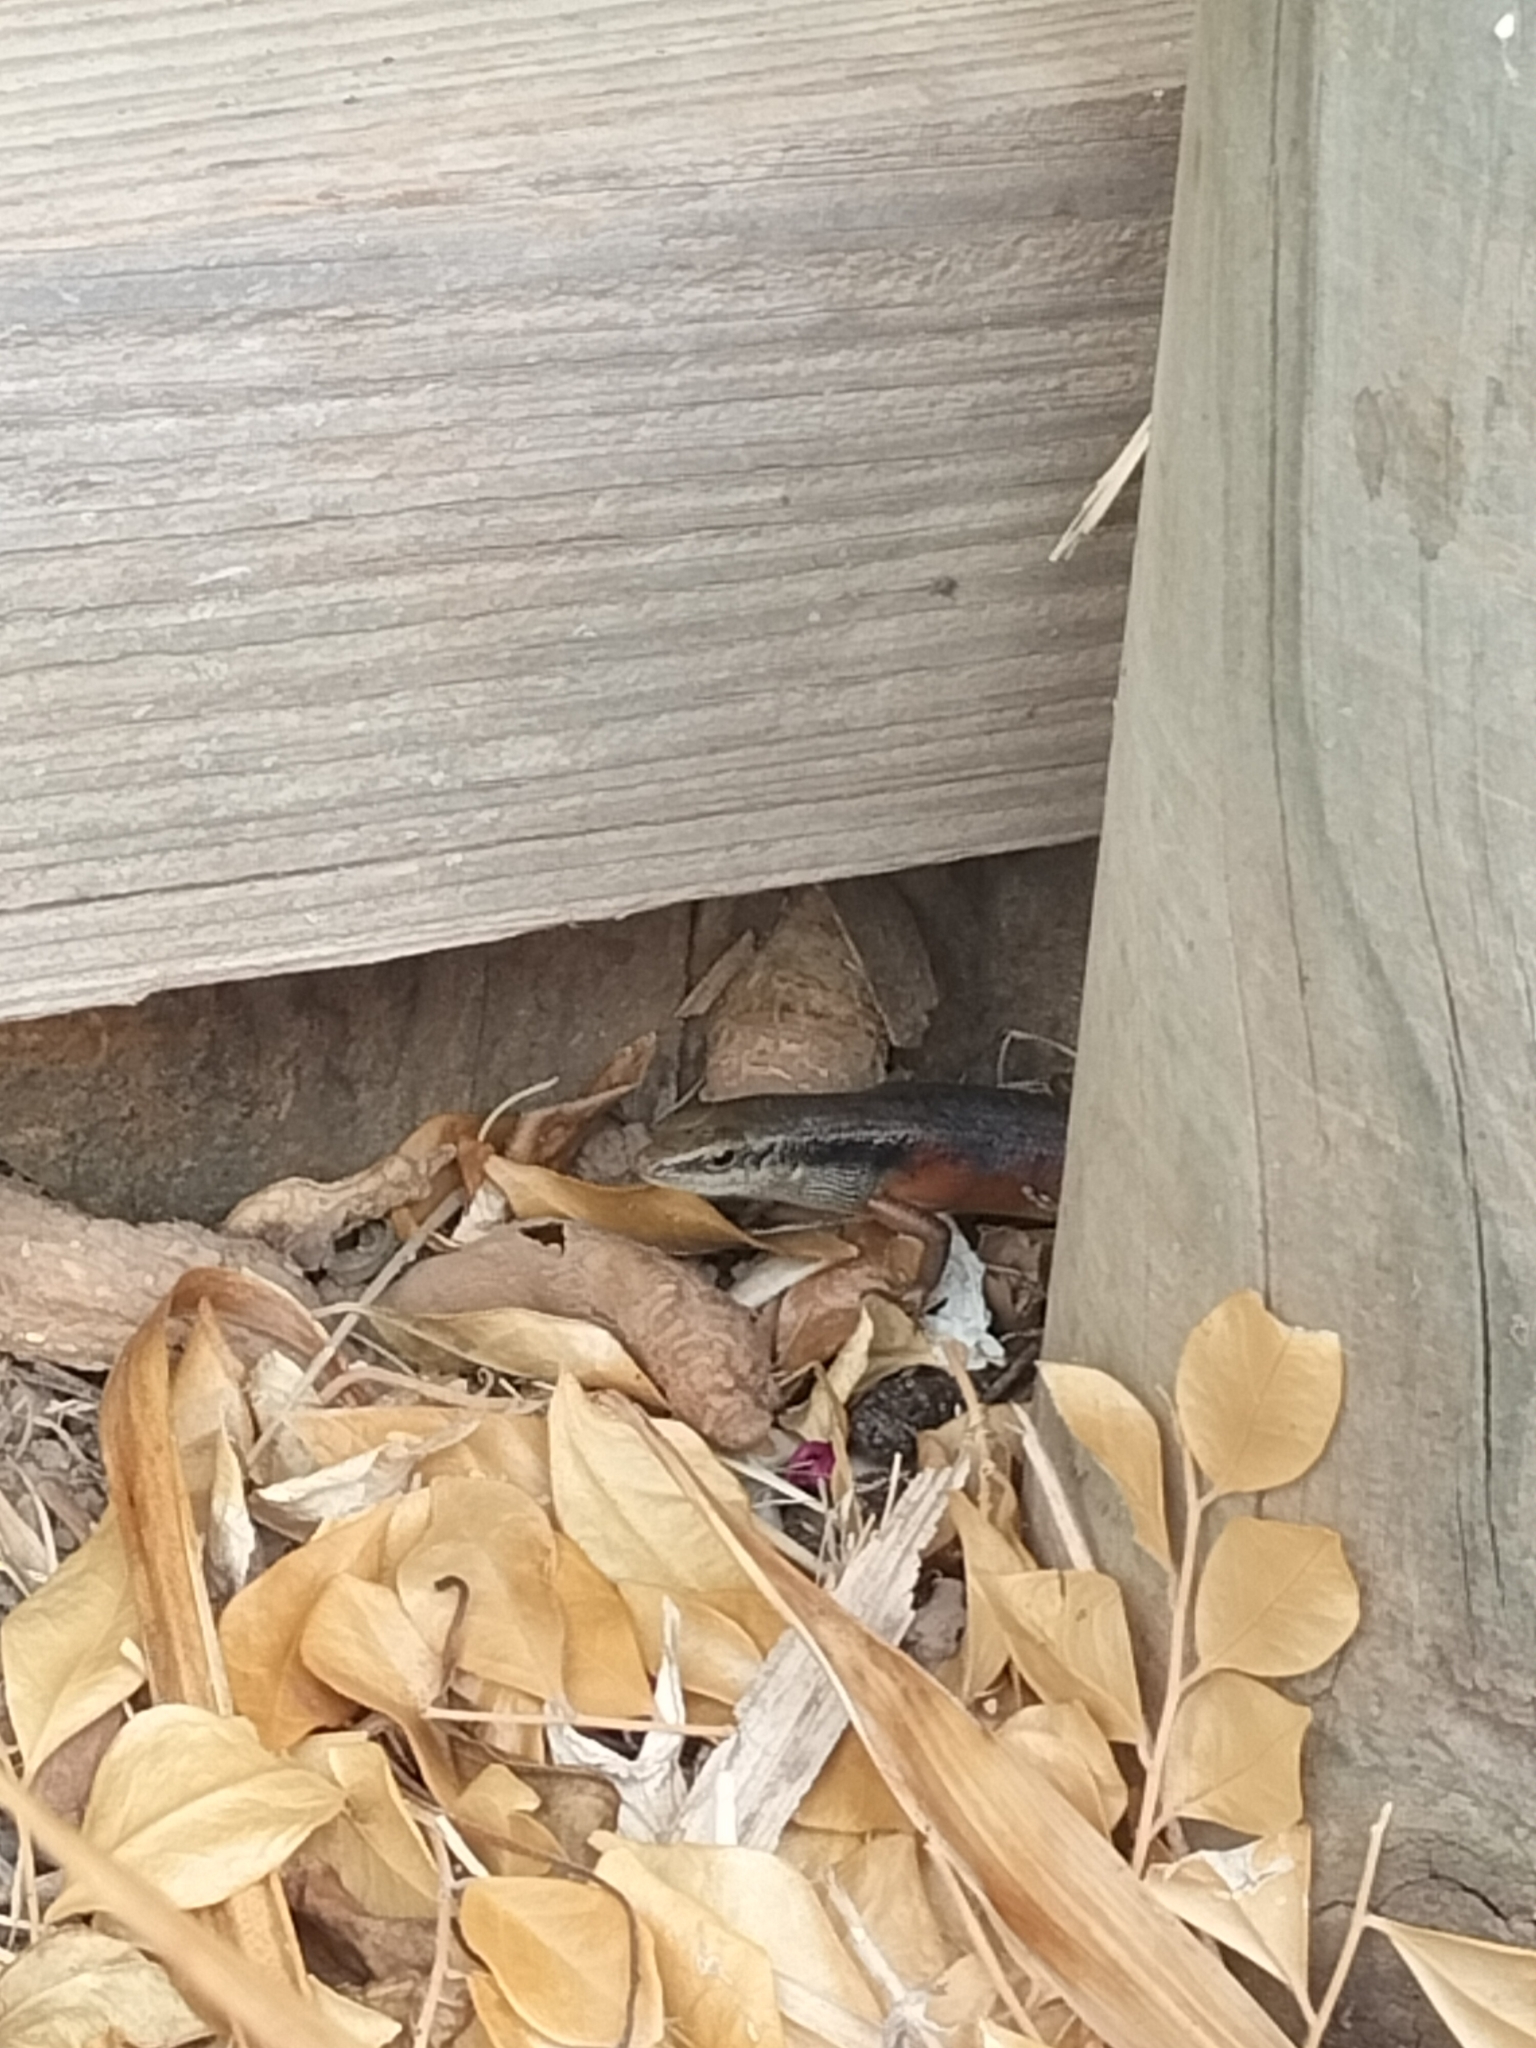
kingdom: Animalia
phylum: Chordata
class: Squamata
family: Scincidae
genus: Carlia
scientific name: Carlia longipes
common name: Closed-litter rainbow-skink
